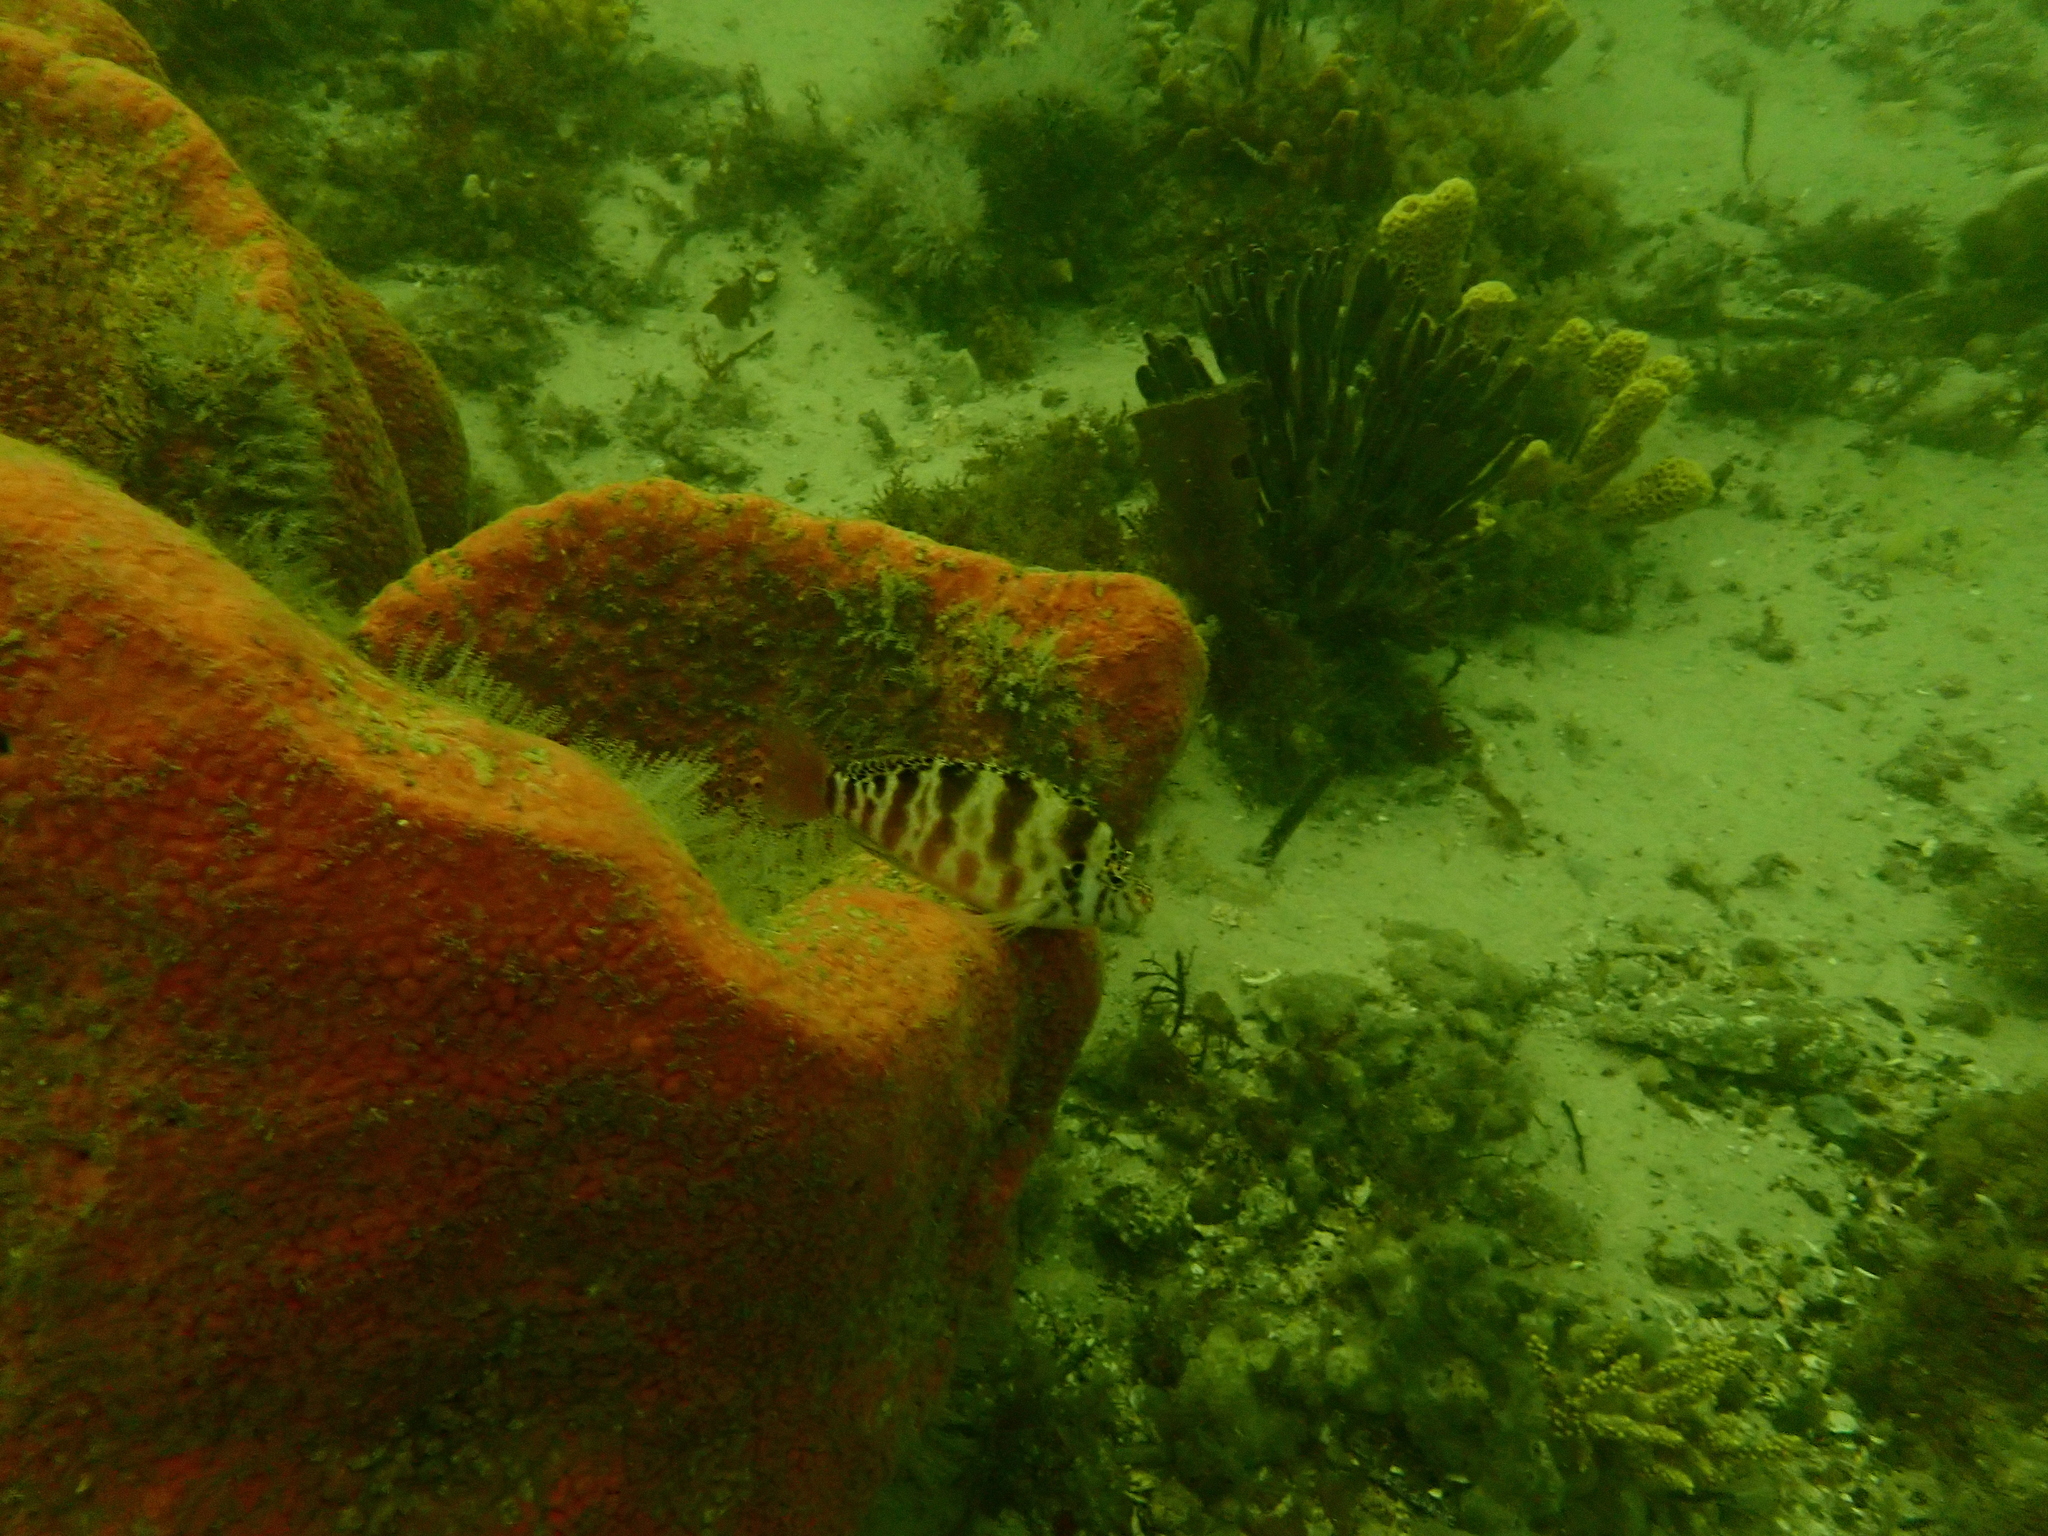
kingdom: Animalia
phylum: Chordata
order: Perciformes
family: Cirrhitidae
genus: Cirrhitichthys
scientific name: Cirrhitichthys aprinus
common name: Blotched hawkfish
